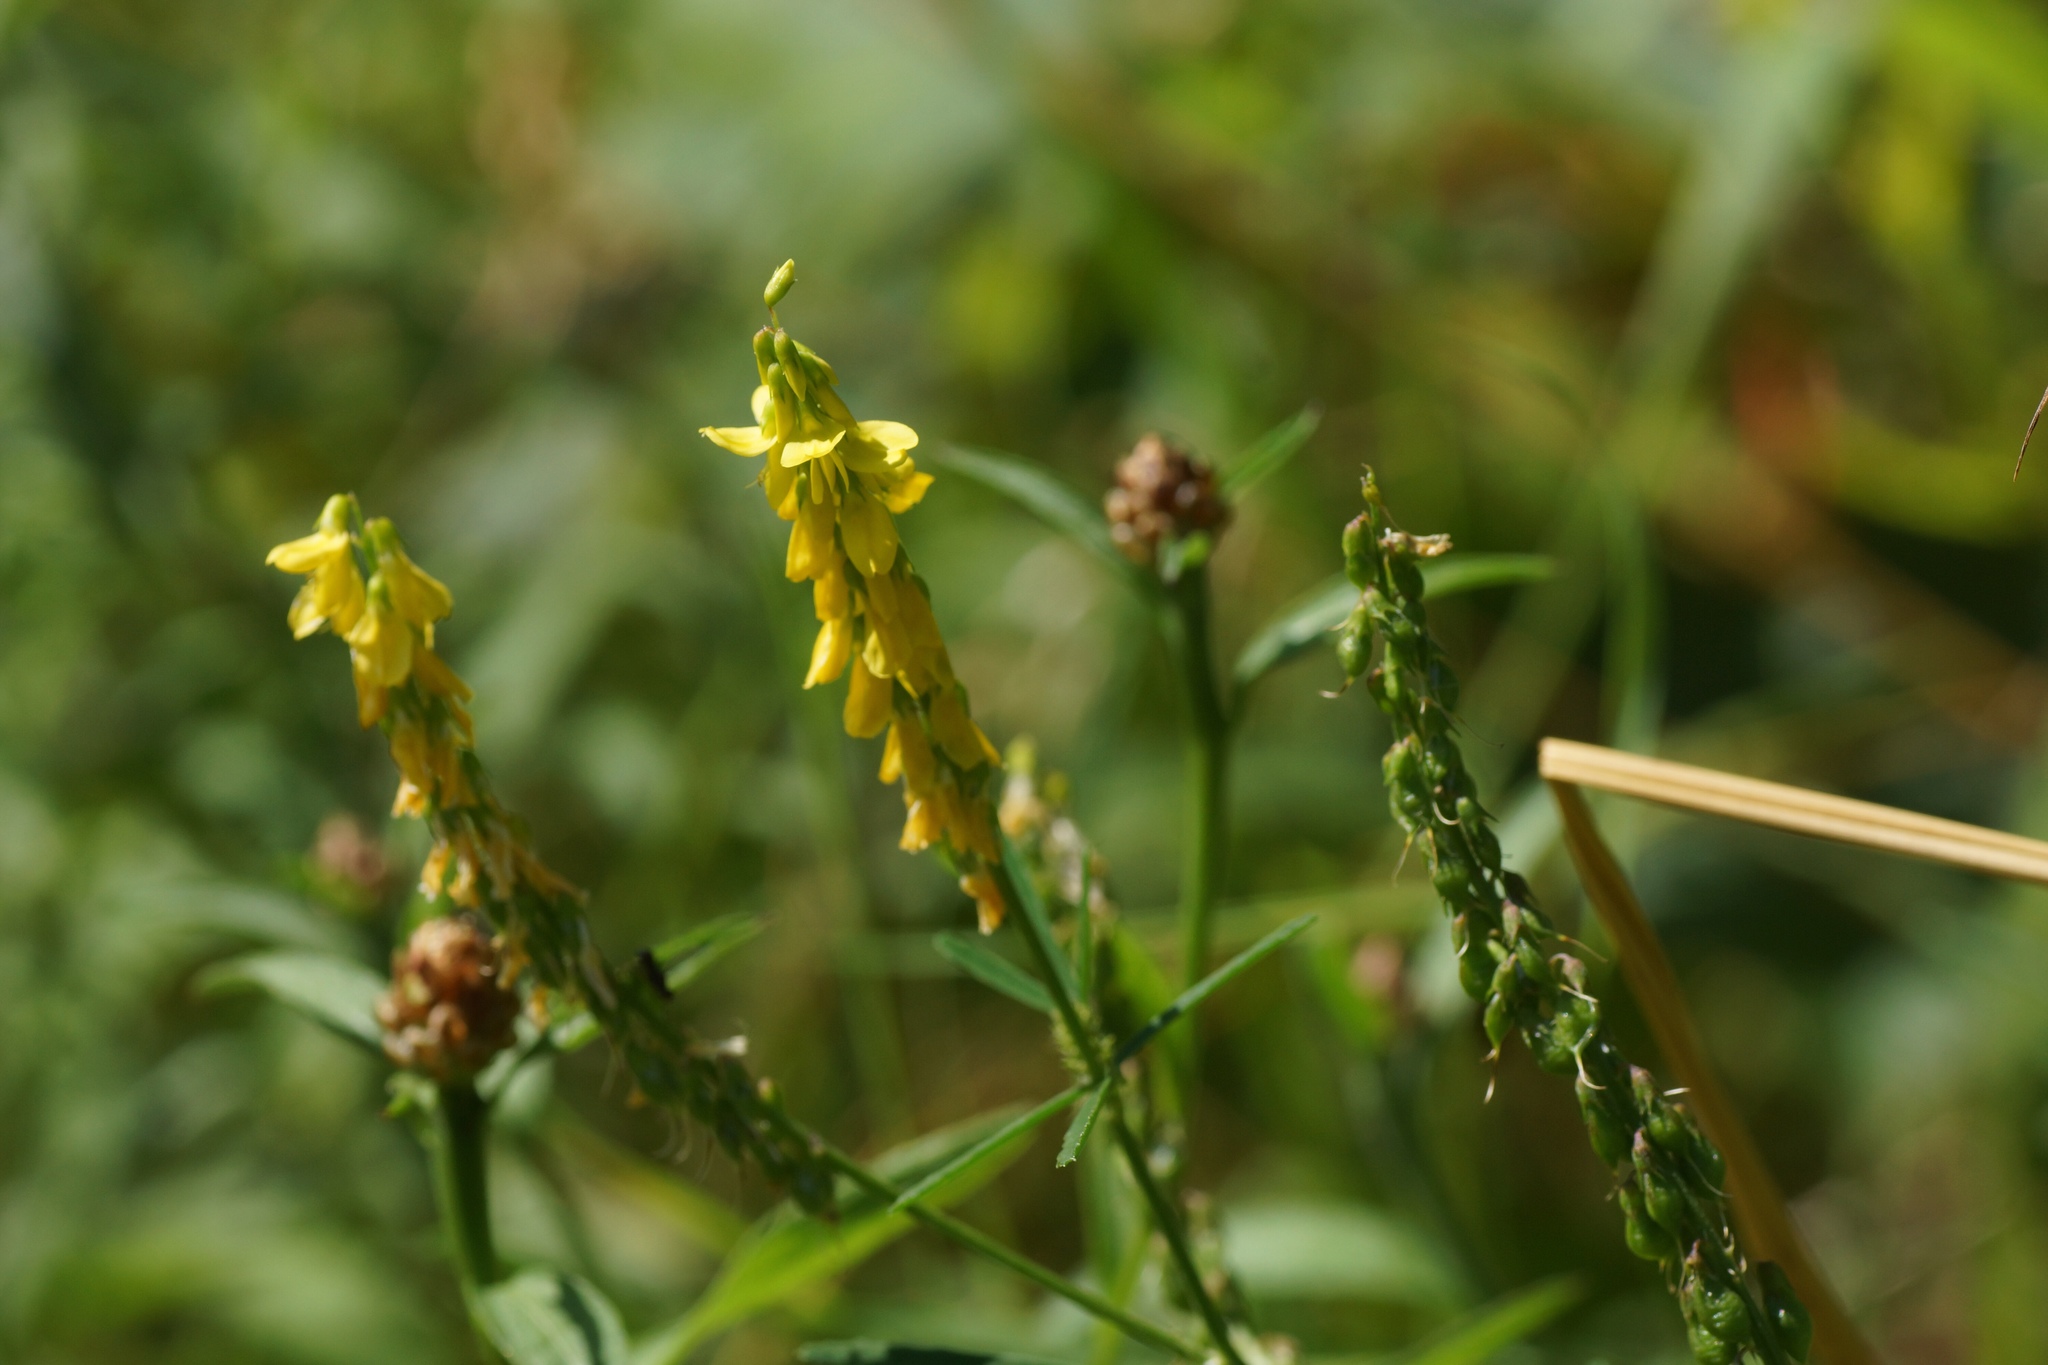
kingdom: Plantae
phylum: Tracheophyta
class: Magnoliopsida
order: Fabales
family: Fabaceae
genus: Melilotus
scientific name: Melilotus officinalis
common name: Sweetclover
